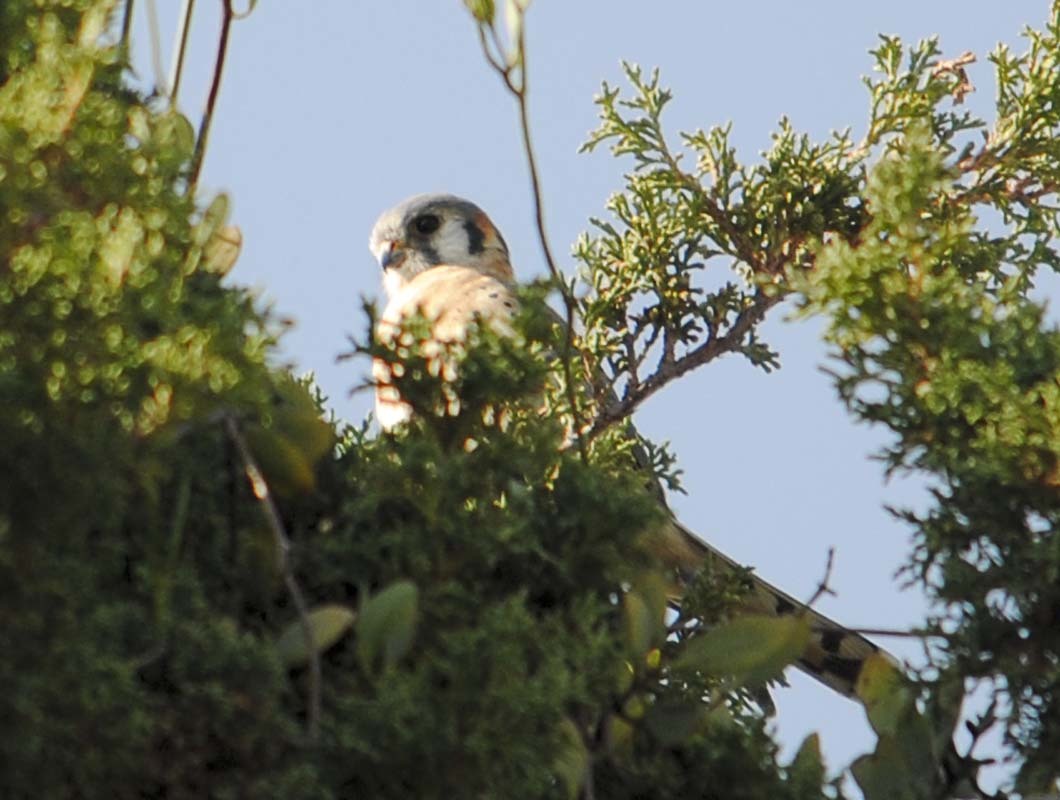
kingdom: Animalia
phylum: Chordata
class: Aves
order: Falconiformes
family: Falconidae
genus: Falco
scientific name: Falco sparverius
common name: American kestrel
